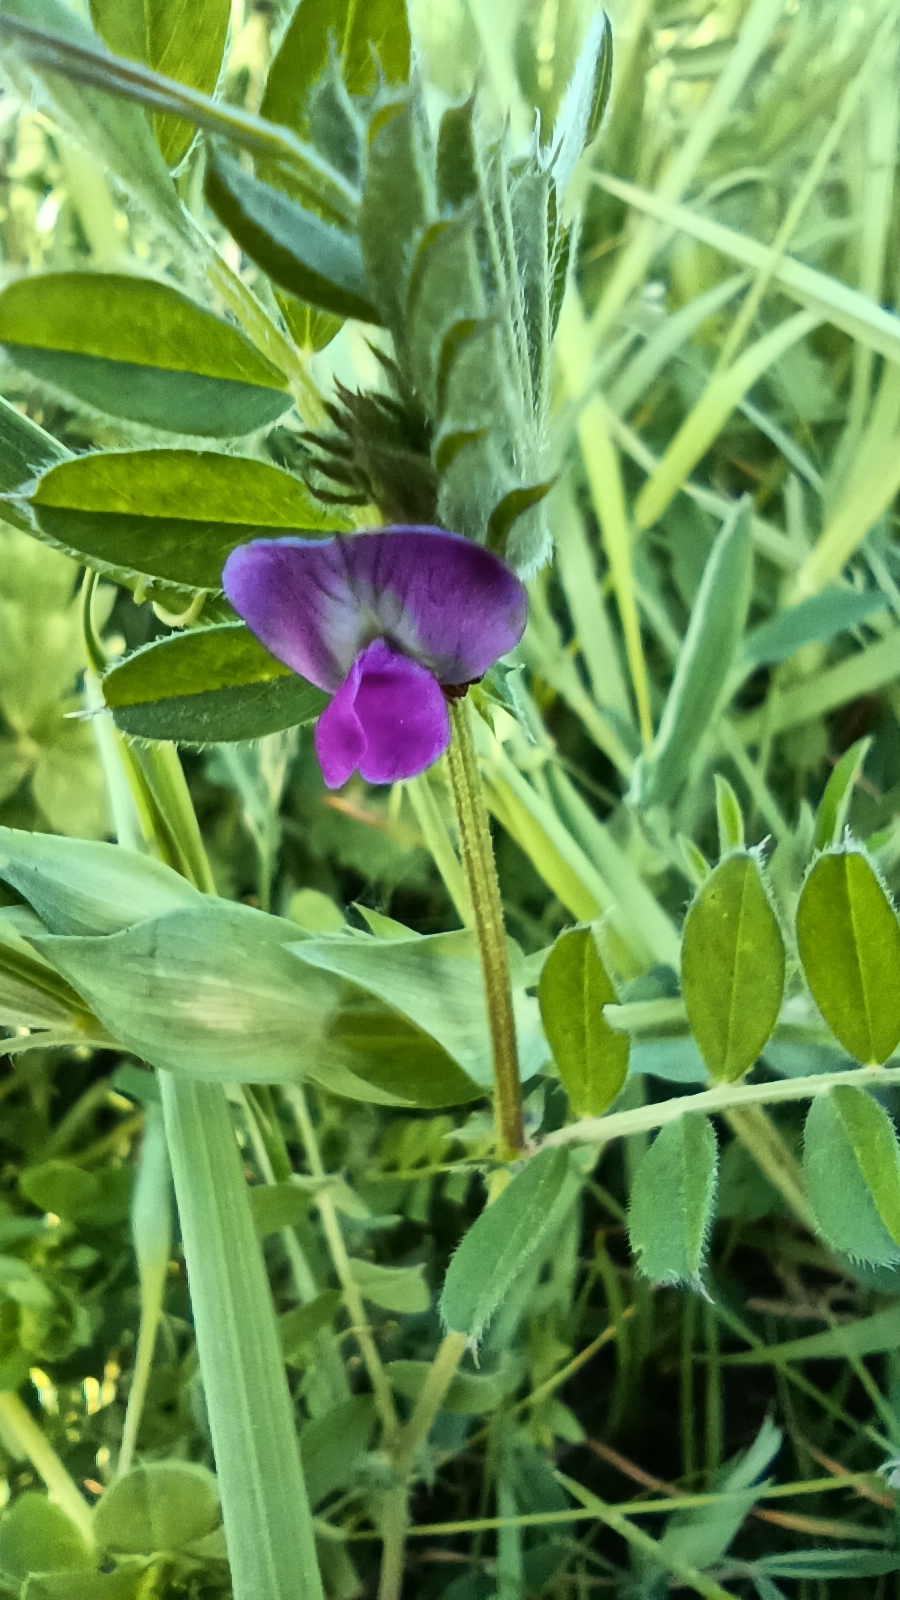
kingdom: Plantae
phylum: Tracheophyta
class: Magnoliopsida
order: Fabales
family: Fabaceae
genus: Vicia
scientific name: Vicia sativa
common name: Garden vetch
